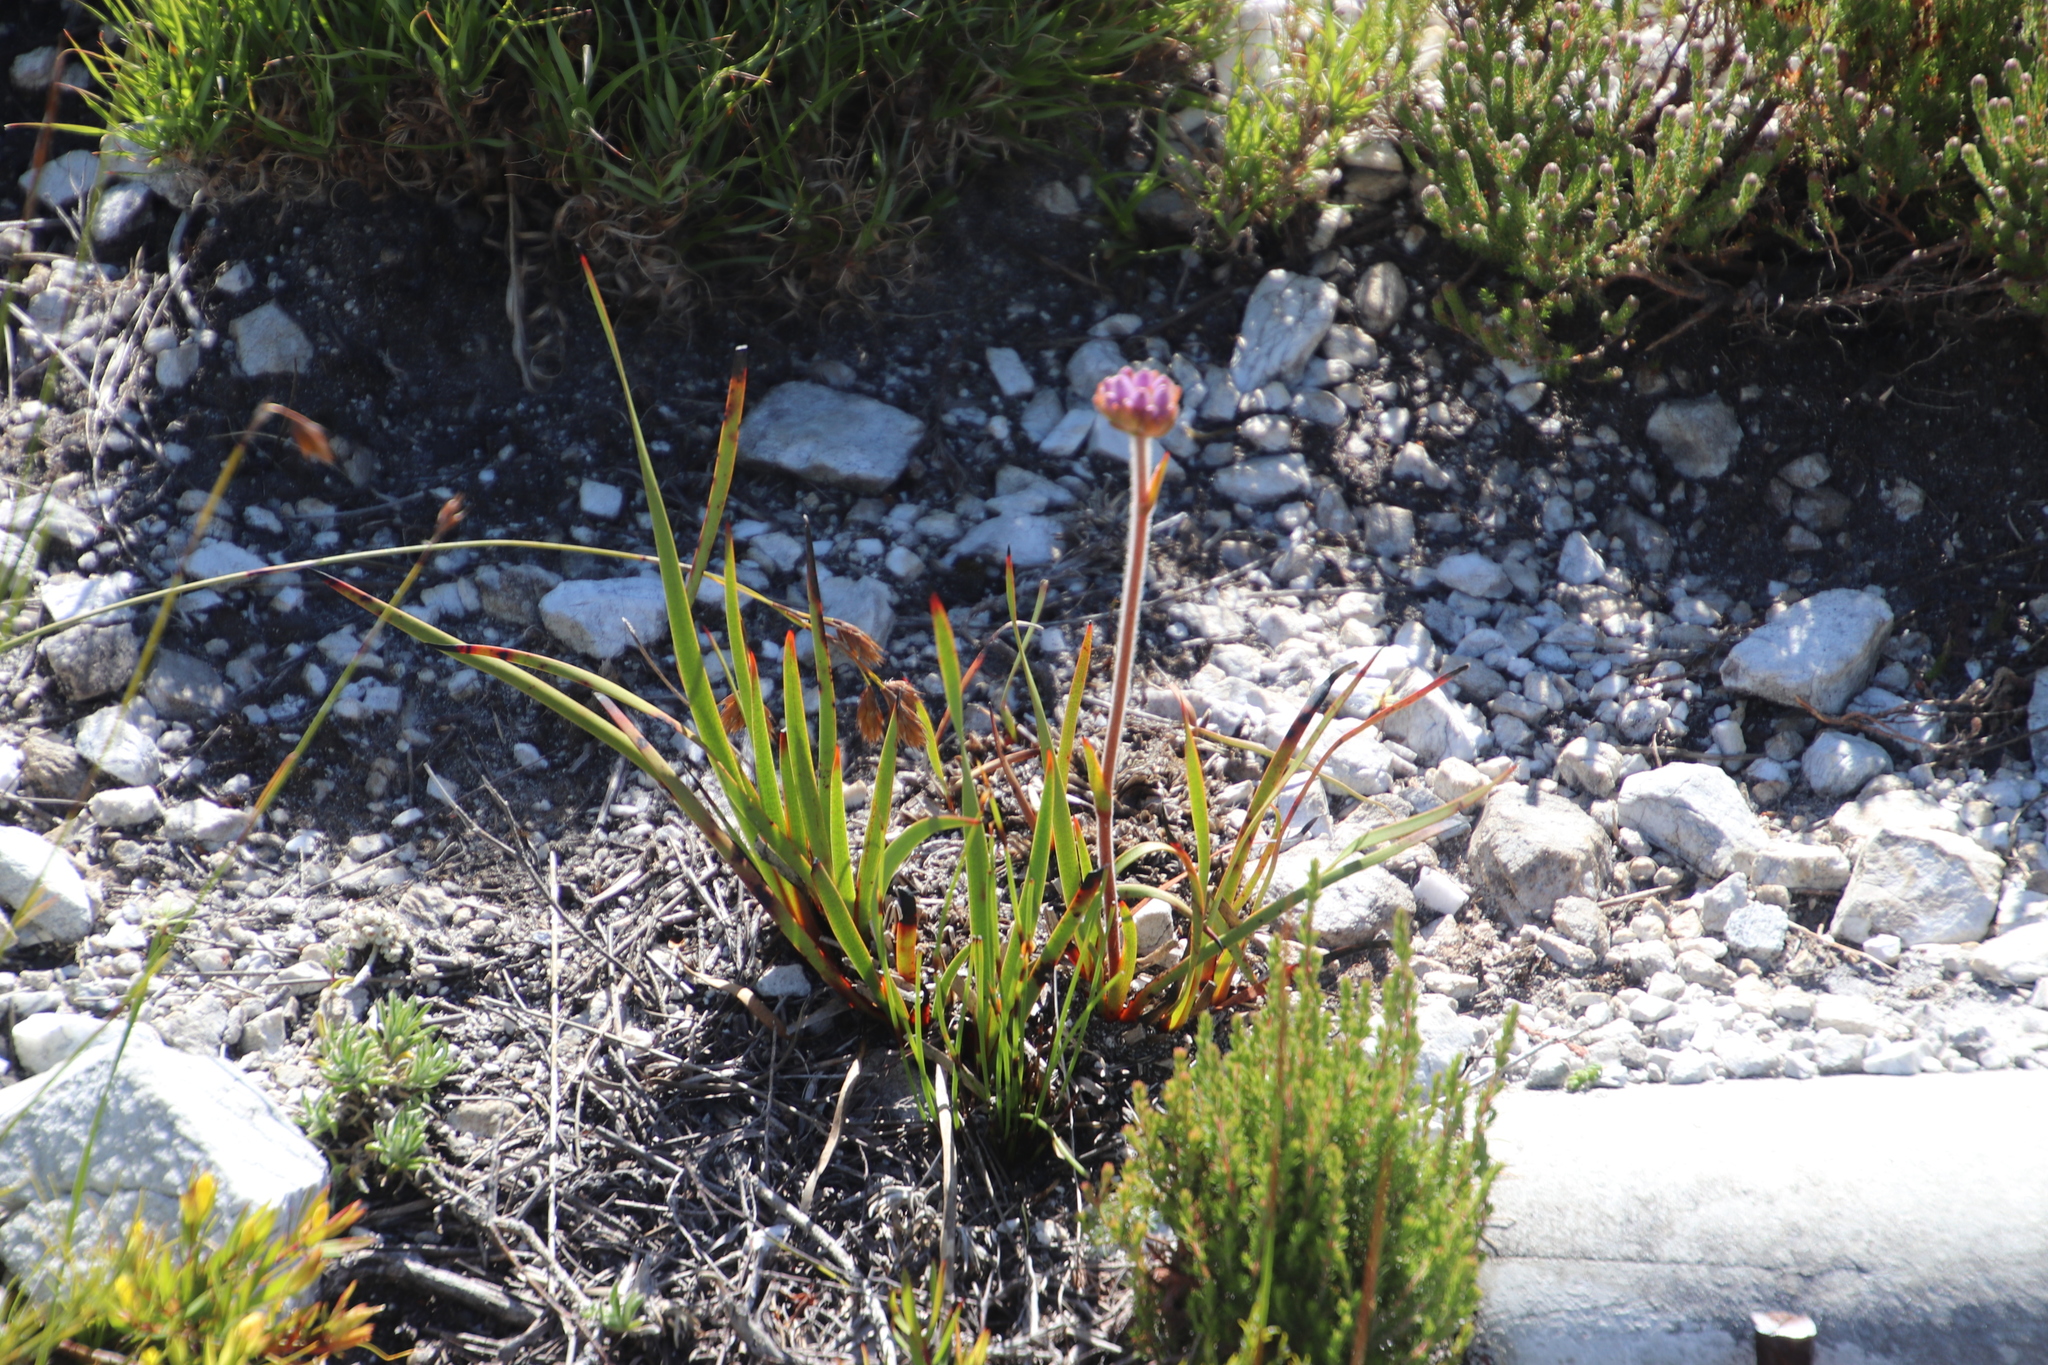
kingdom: Plantae
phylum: Tracheophyta
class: Liliopsida
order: Commelinales
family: Haemodoraceae
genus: Dilatris
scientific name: Dilatris pillansii
